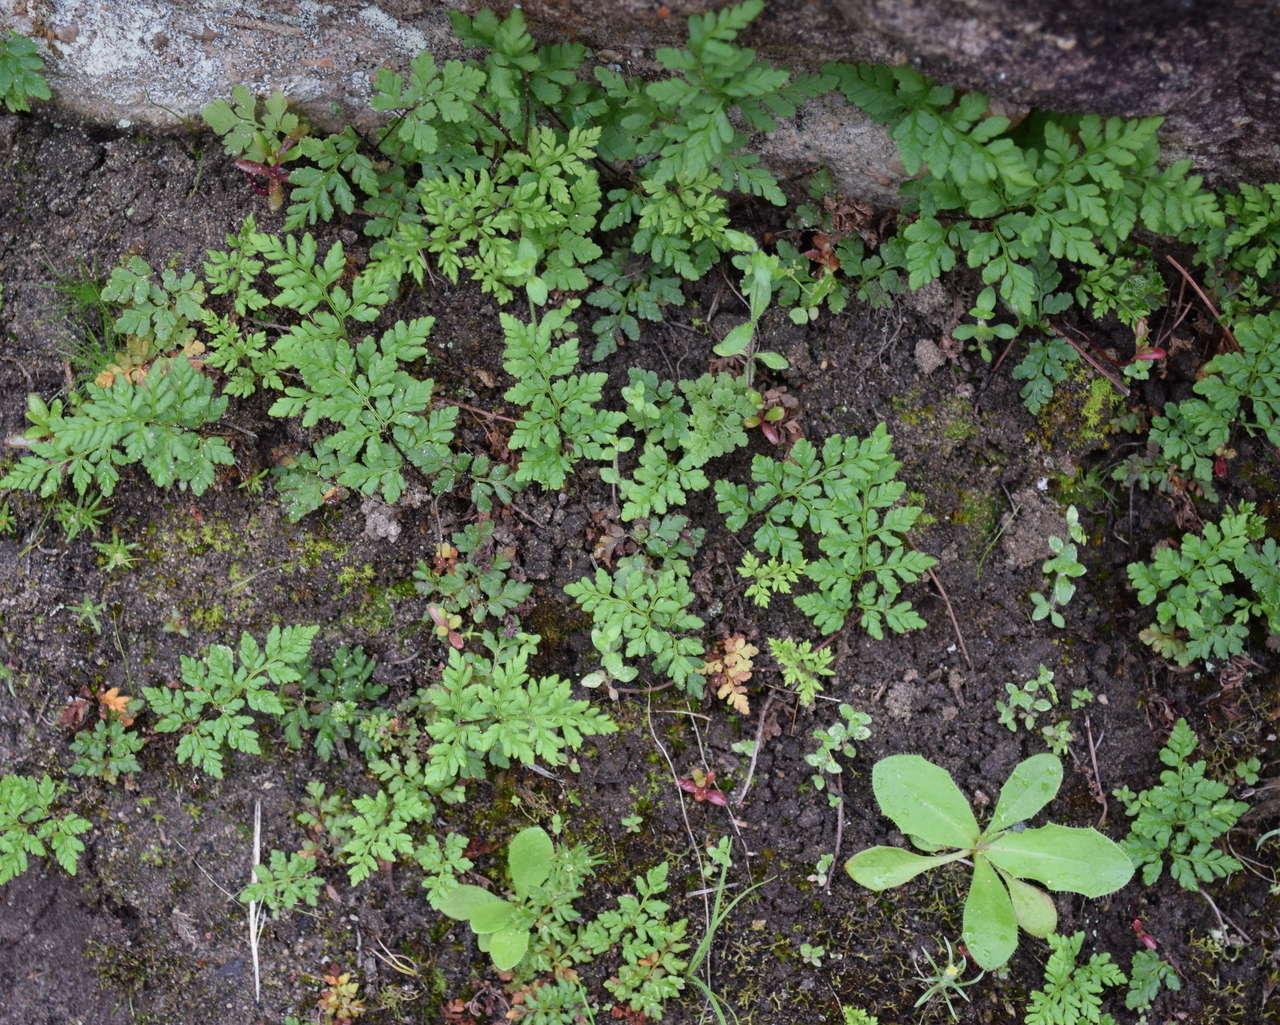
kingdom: Plantae
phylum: Tracheophyta
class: Polypodiopsida
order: Polypodiales
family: Pteridaceae
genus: Cheilanthes
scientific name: Cheilanthes austrotenuifolia
